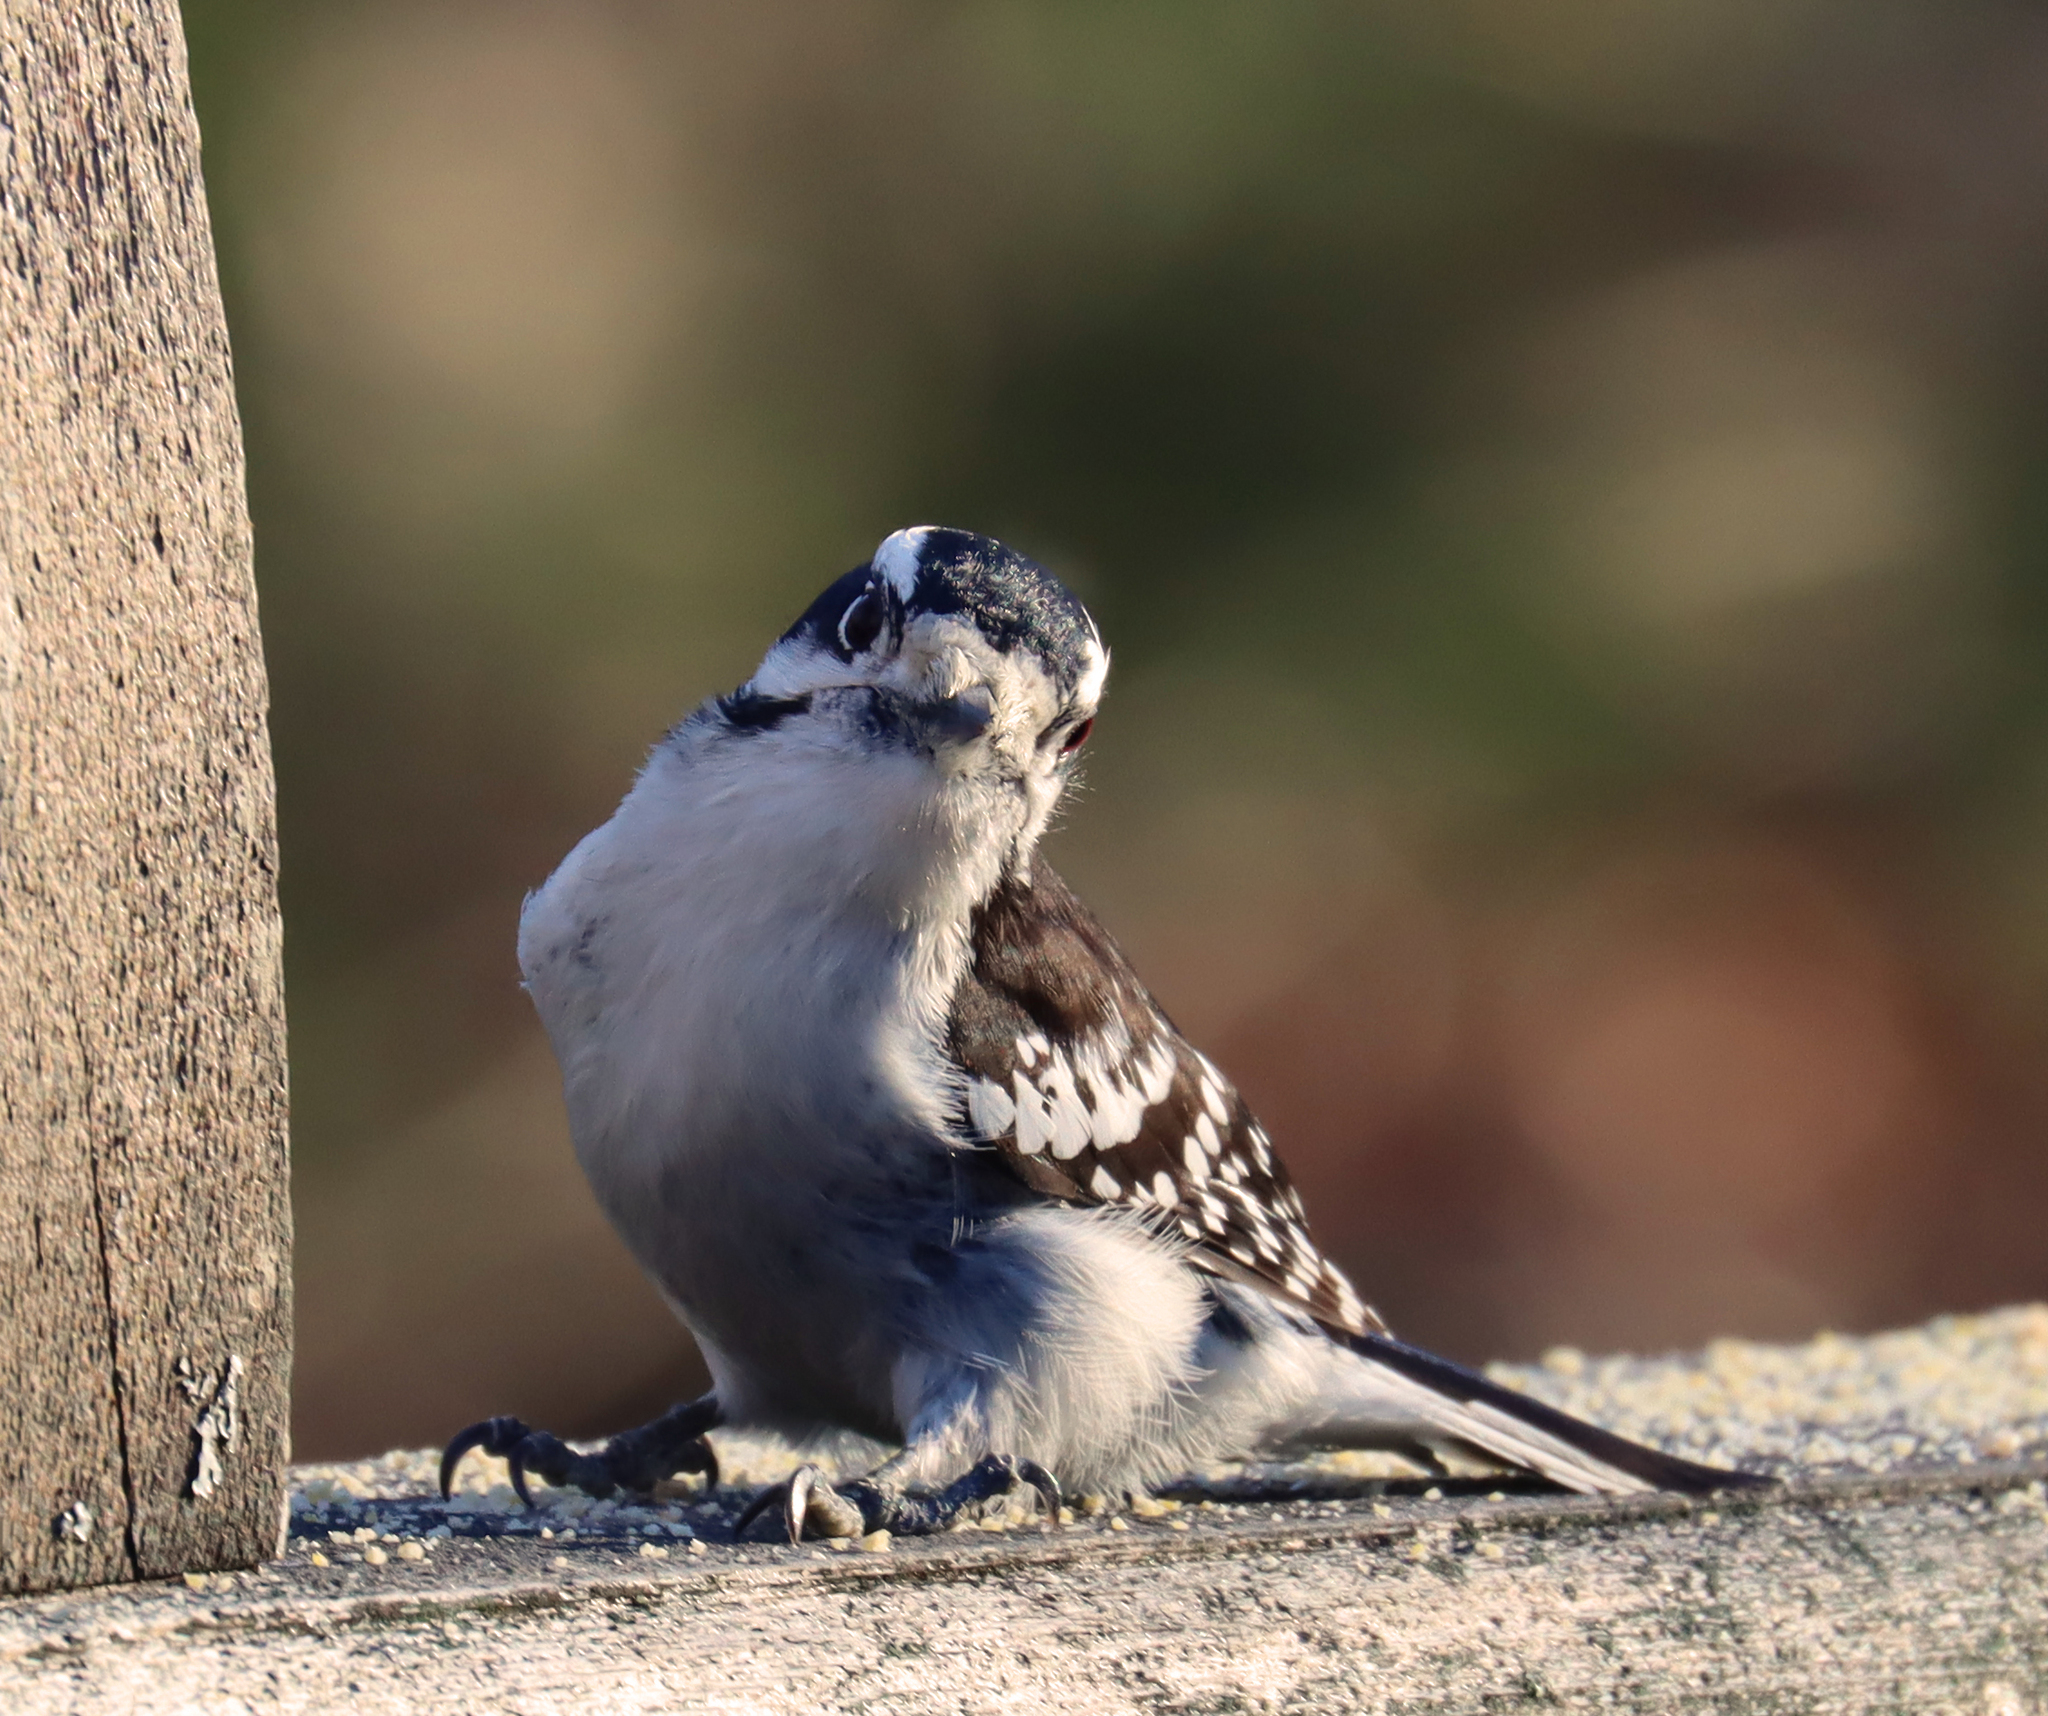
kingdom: Animalia
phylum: Chordata
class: Aves
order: Piciformes
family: Picidae
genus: Dryobates
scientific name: Dryobates pubescens
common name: Downy woodpecker
